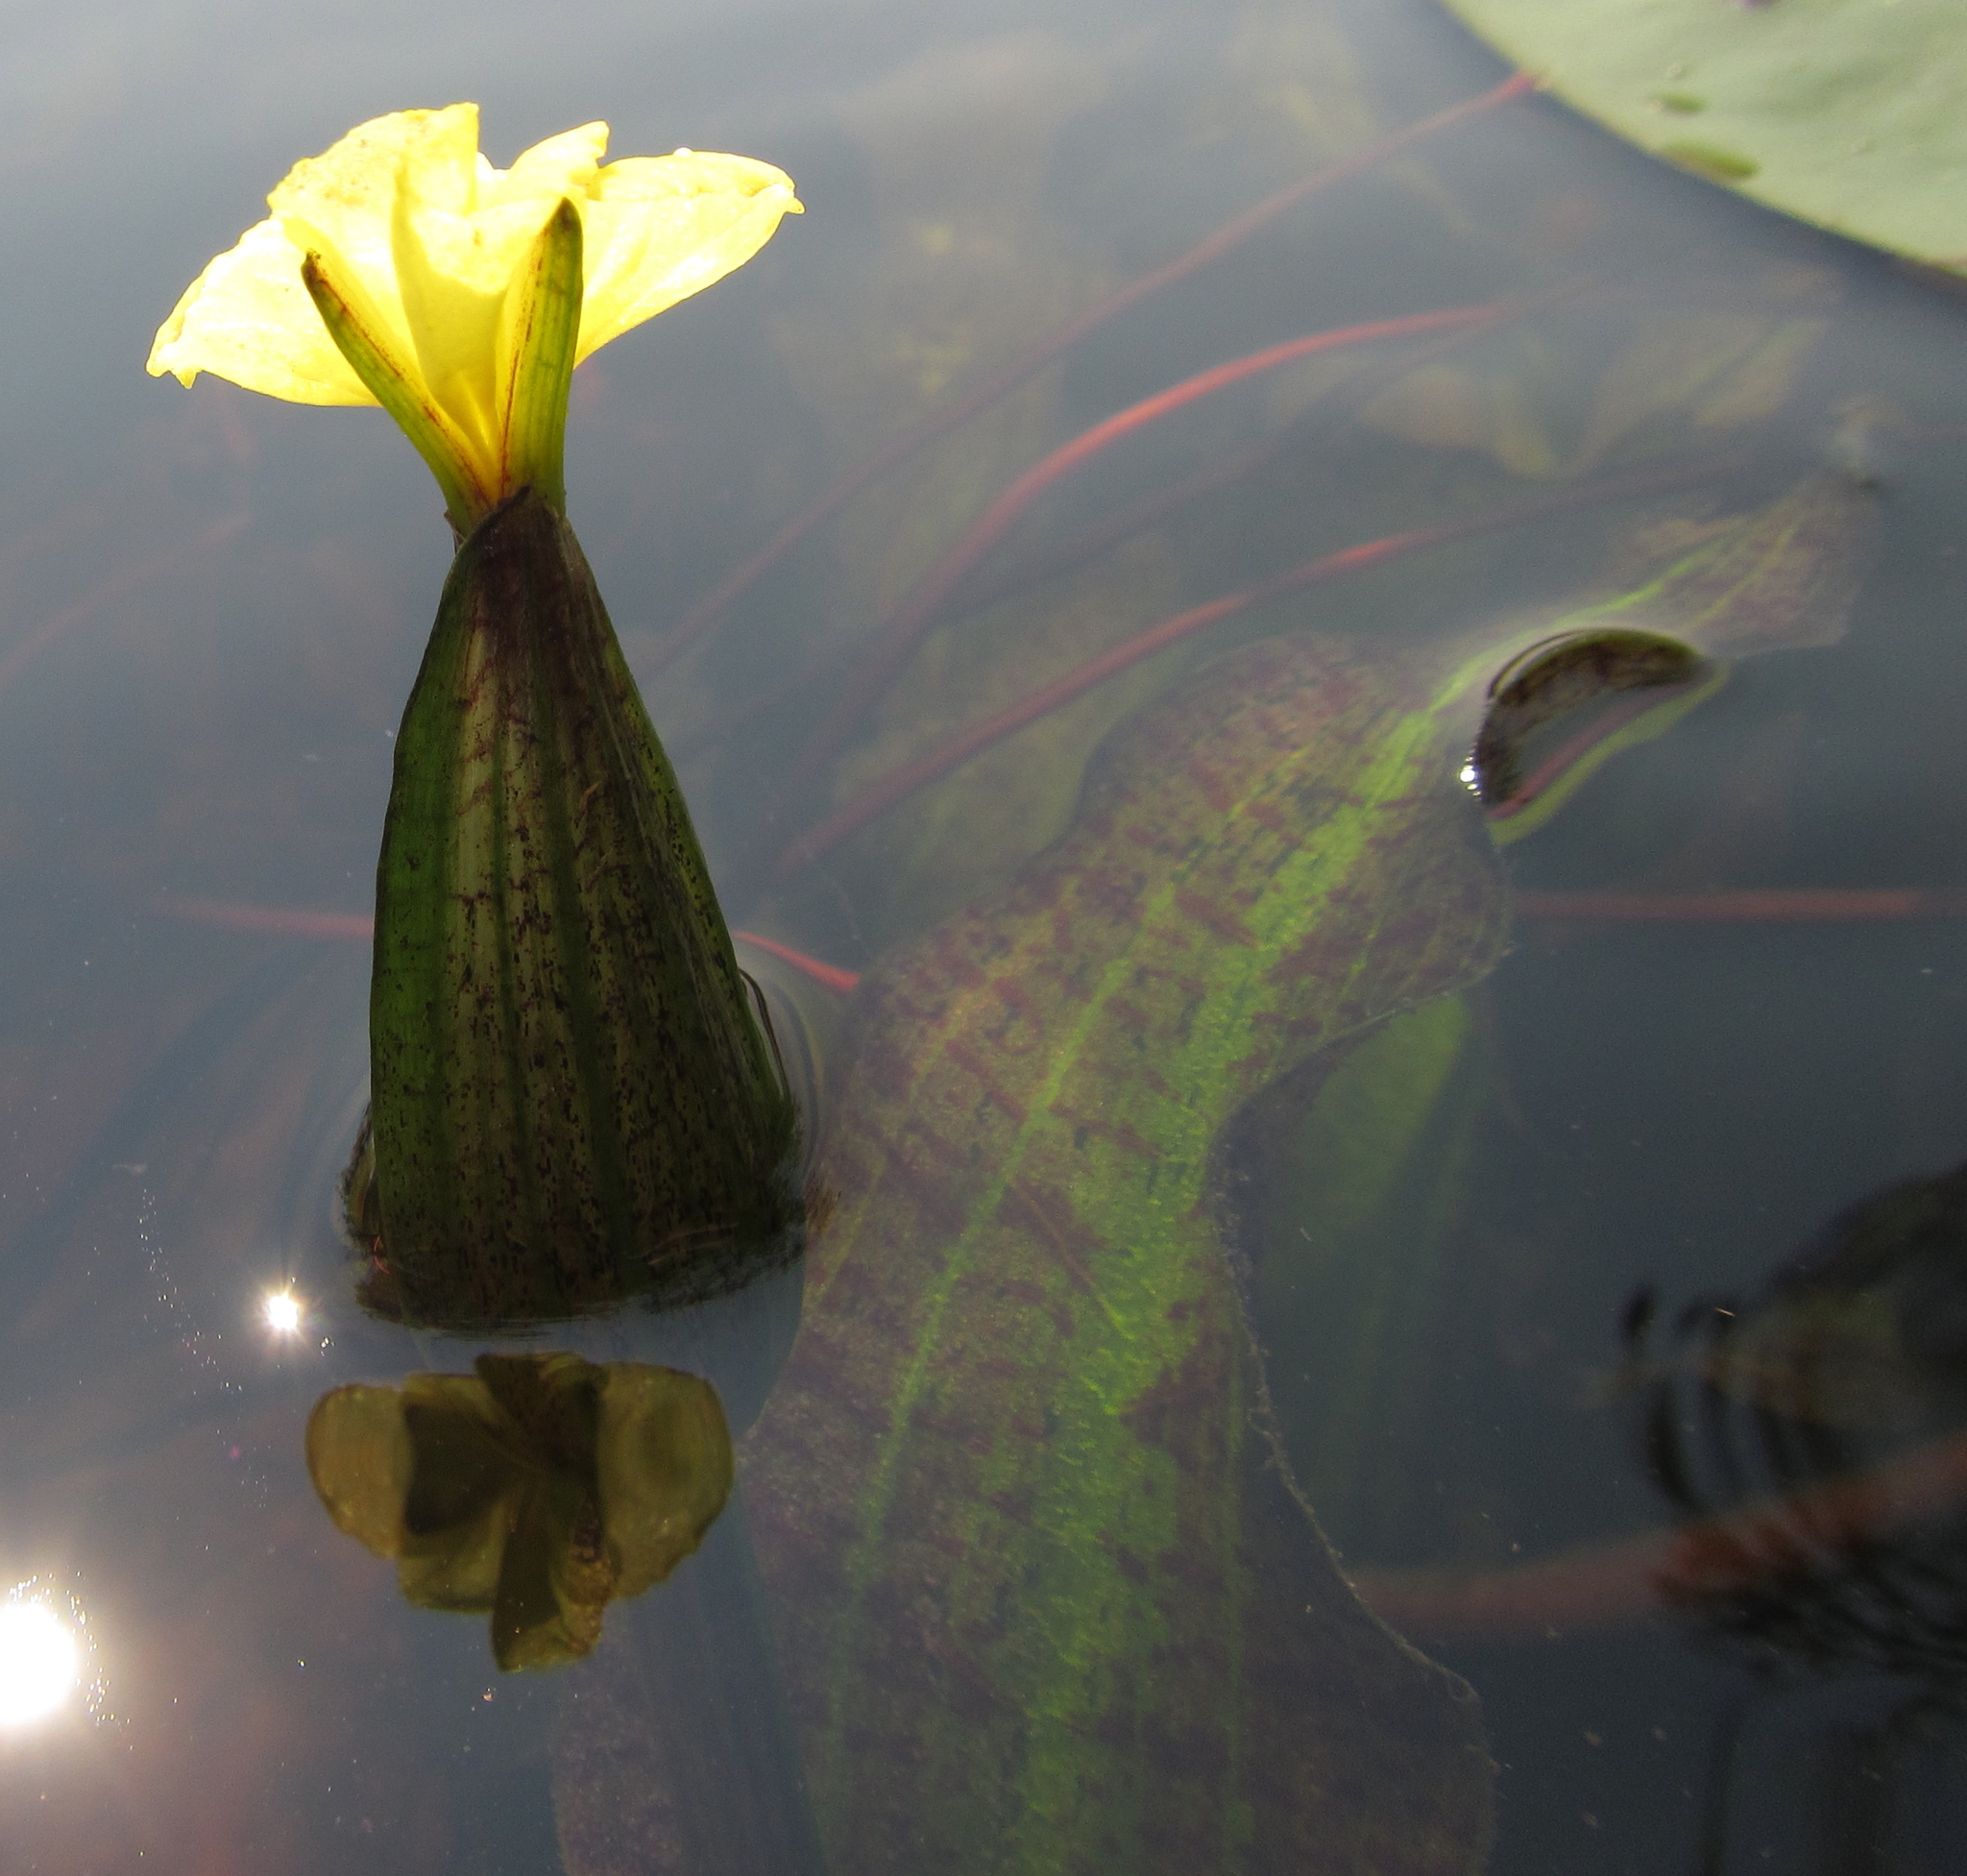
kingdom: Plantae
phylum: Tracheophyta
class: Liliopsida
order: Alismatales
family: Hydrocharitaceae
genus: Ottelia
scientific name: Ottelia ulvifolia
